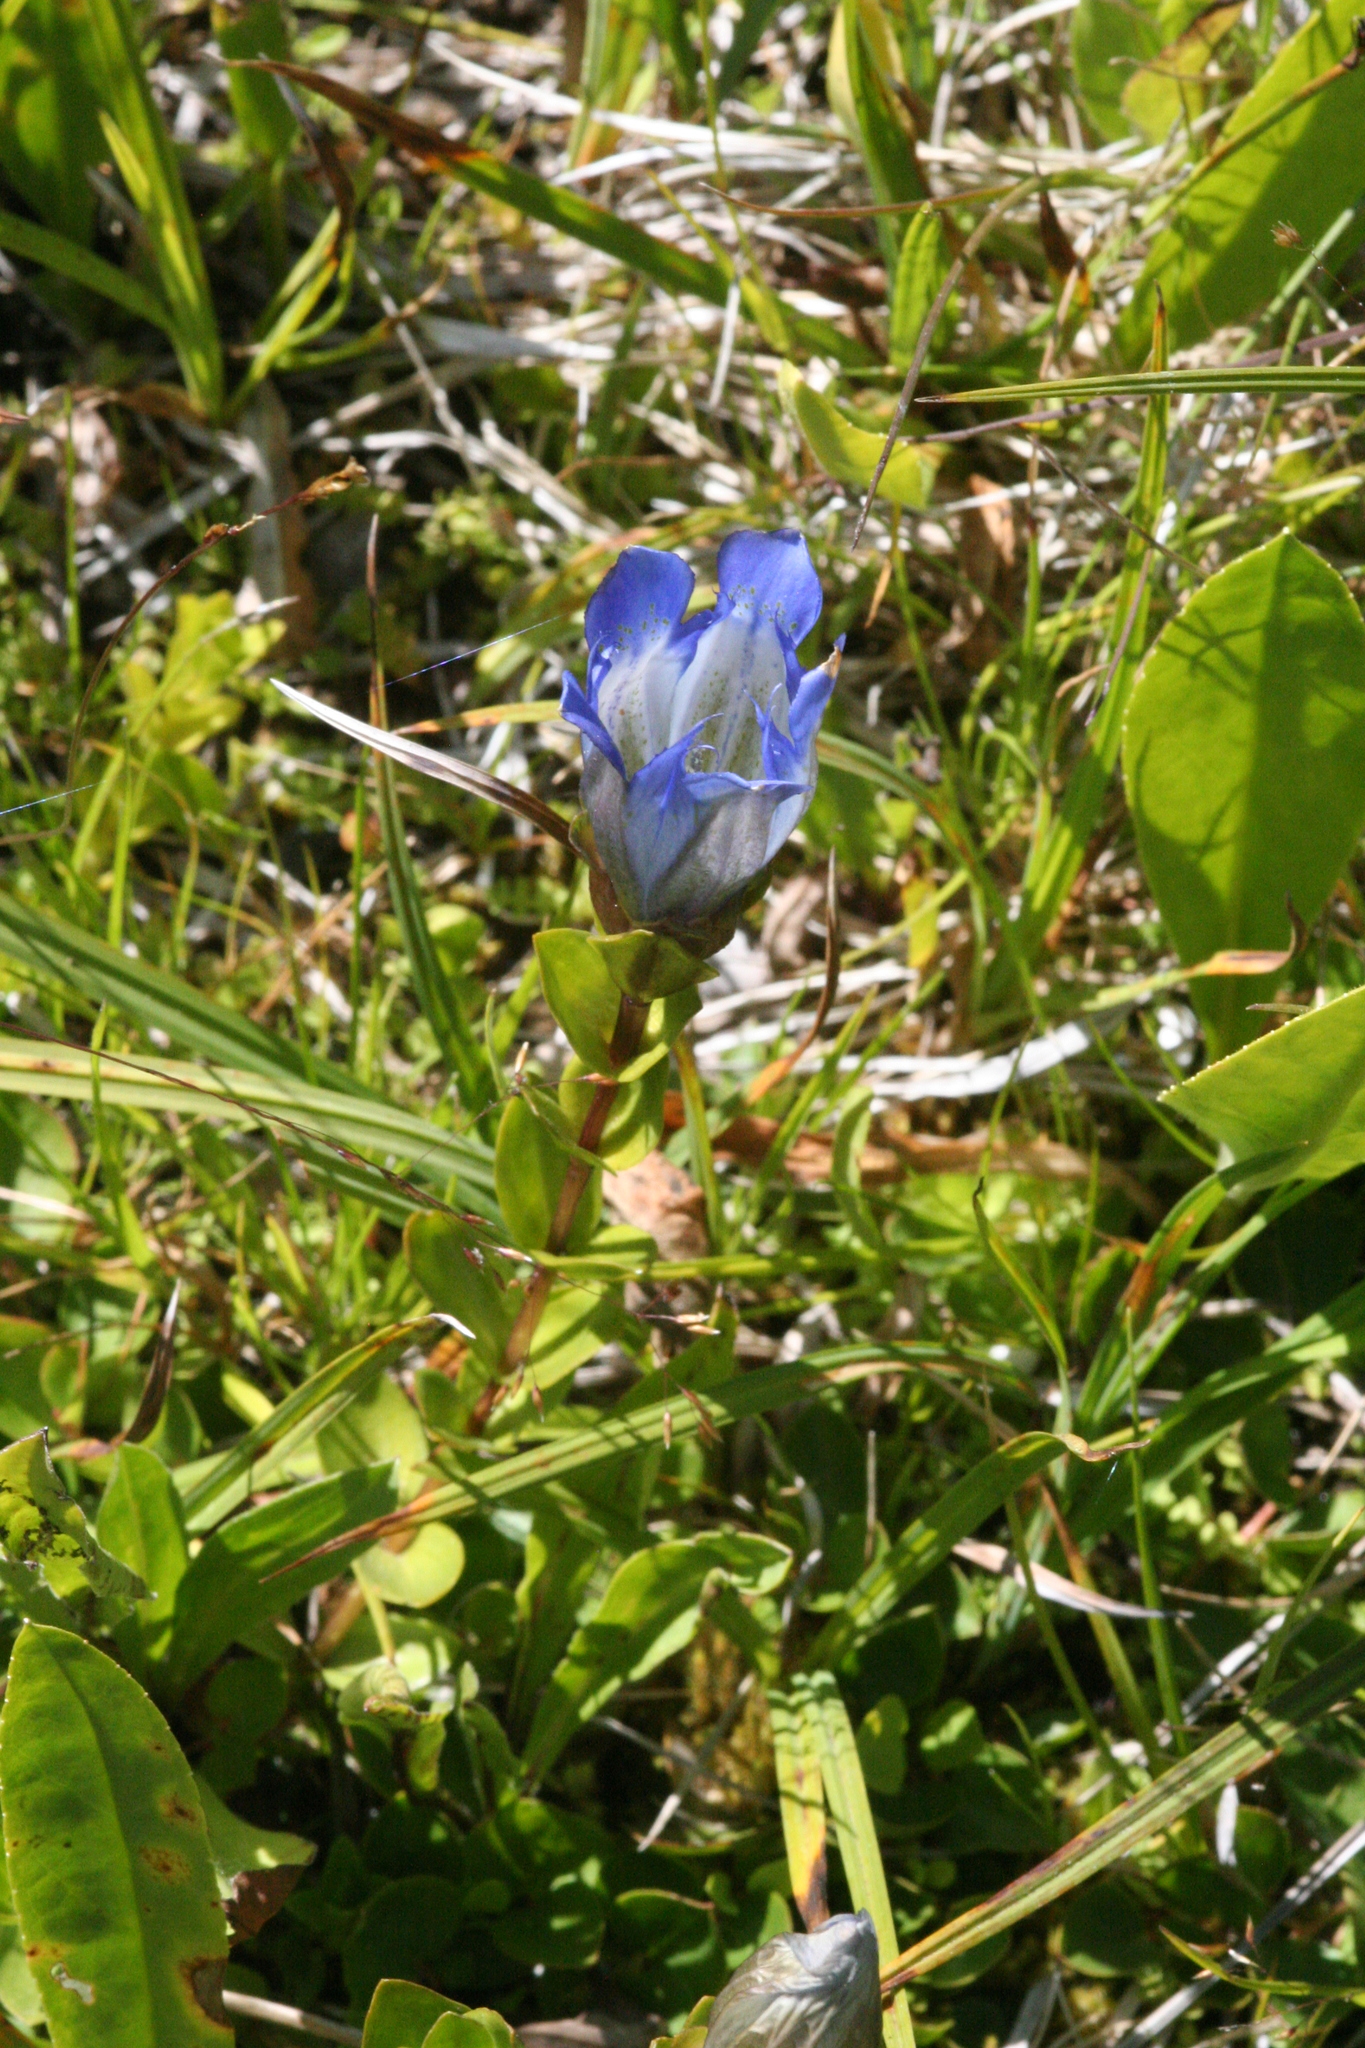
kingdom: Plantae
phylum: Tracheophyta
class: Magnoliopsida
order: Gentianales
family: Gentianaceae
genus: Gentiana
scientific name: Gentiana calycosa
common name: Rainier pleated gentian
